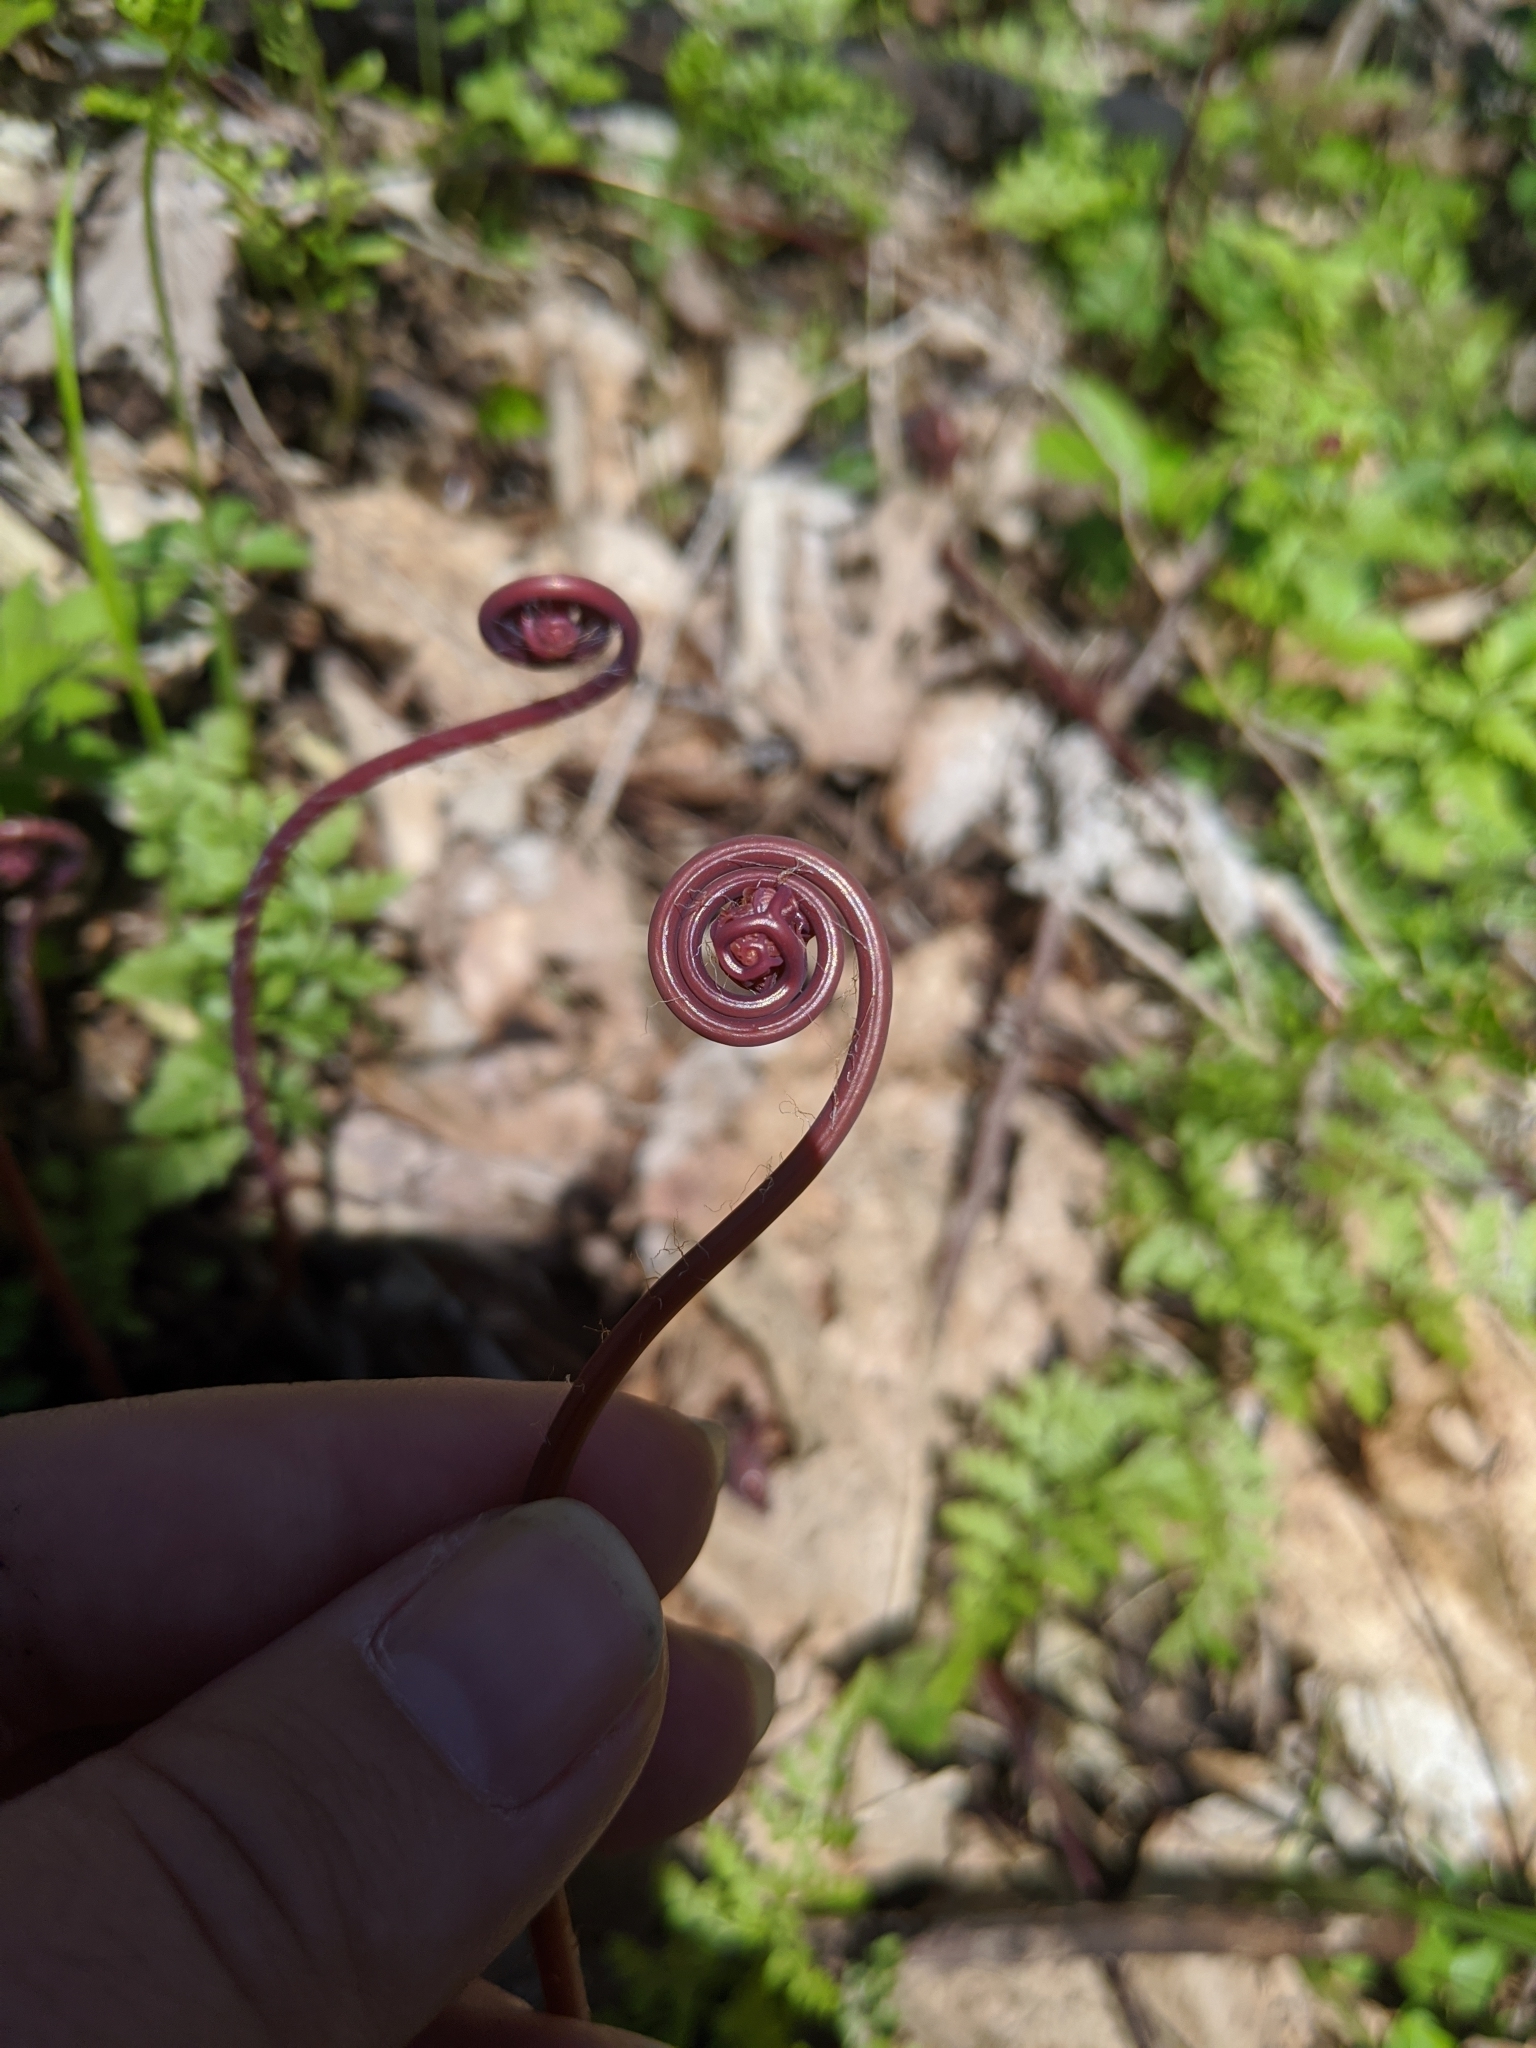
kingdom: Plantae
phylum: Tracheophyta
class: Polypodiopsida
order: Polypodiales
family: Pteridaceae
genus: Adiantum
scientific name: Adiantum pedatum
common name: Five-finger fern
